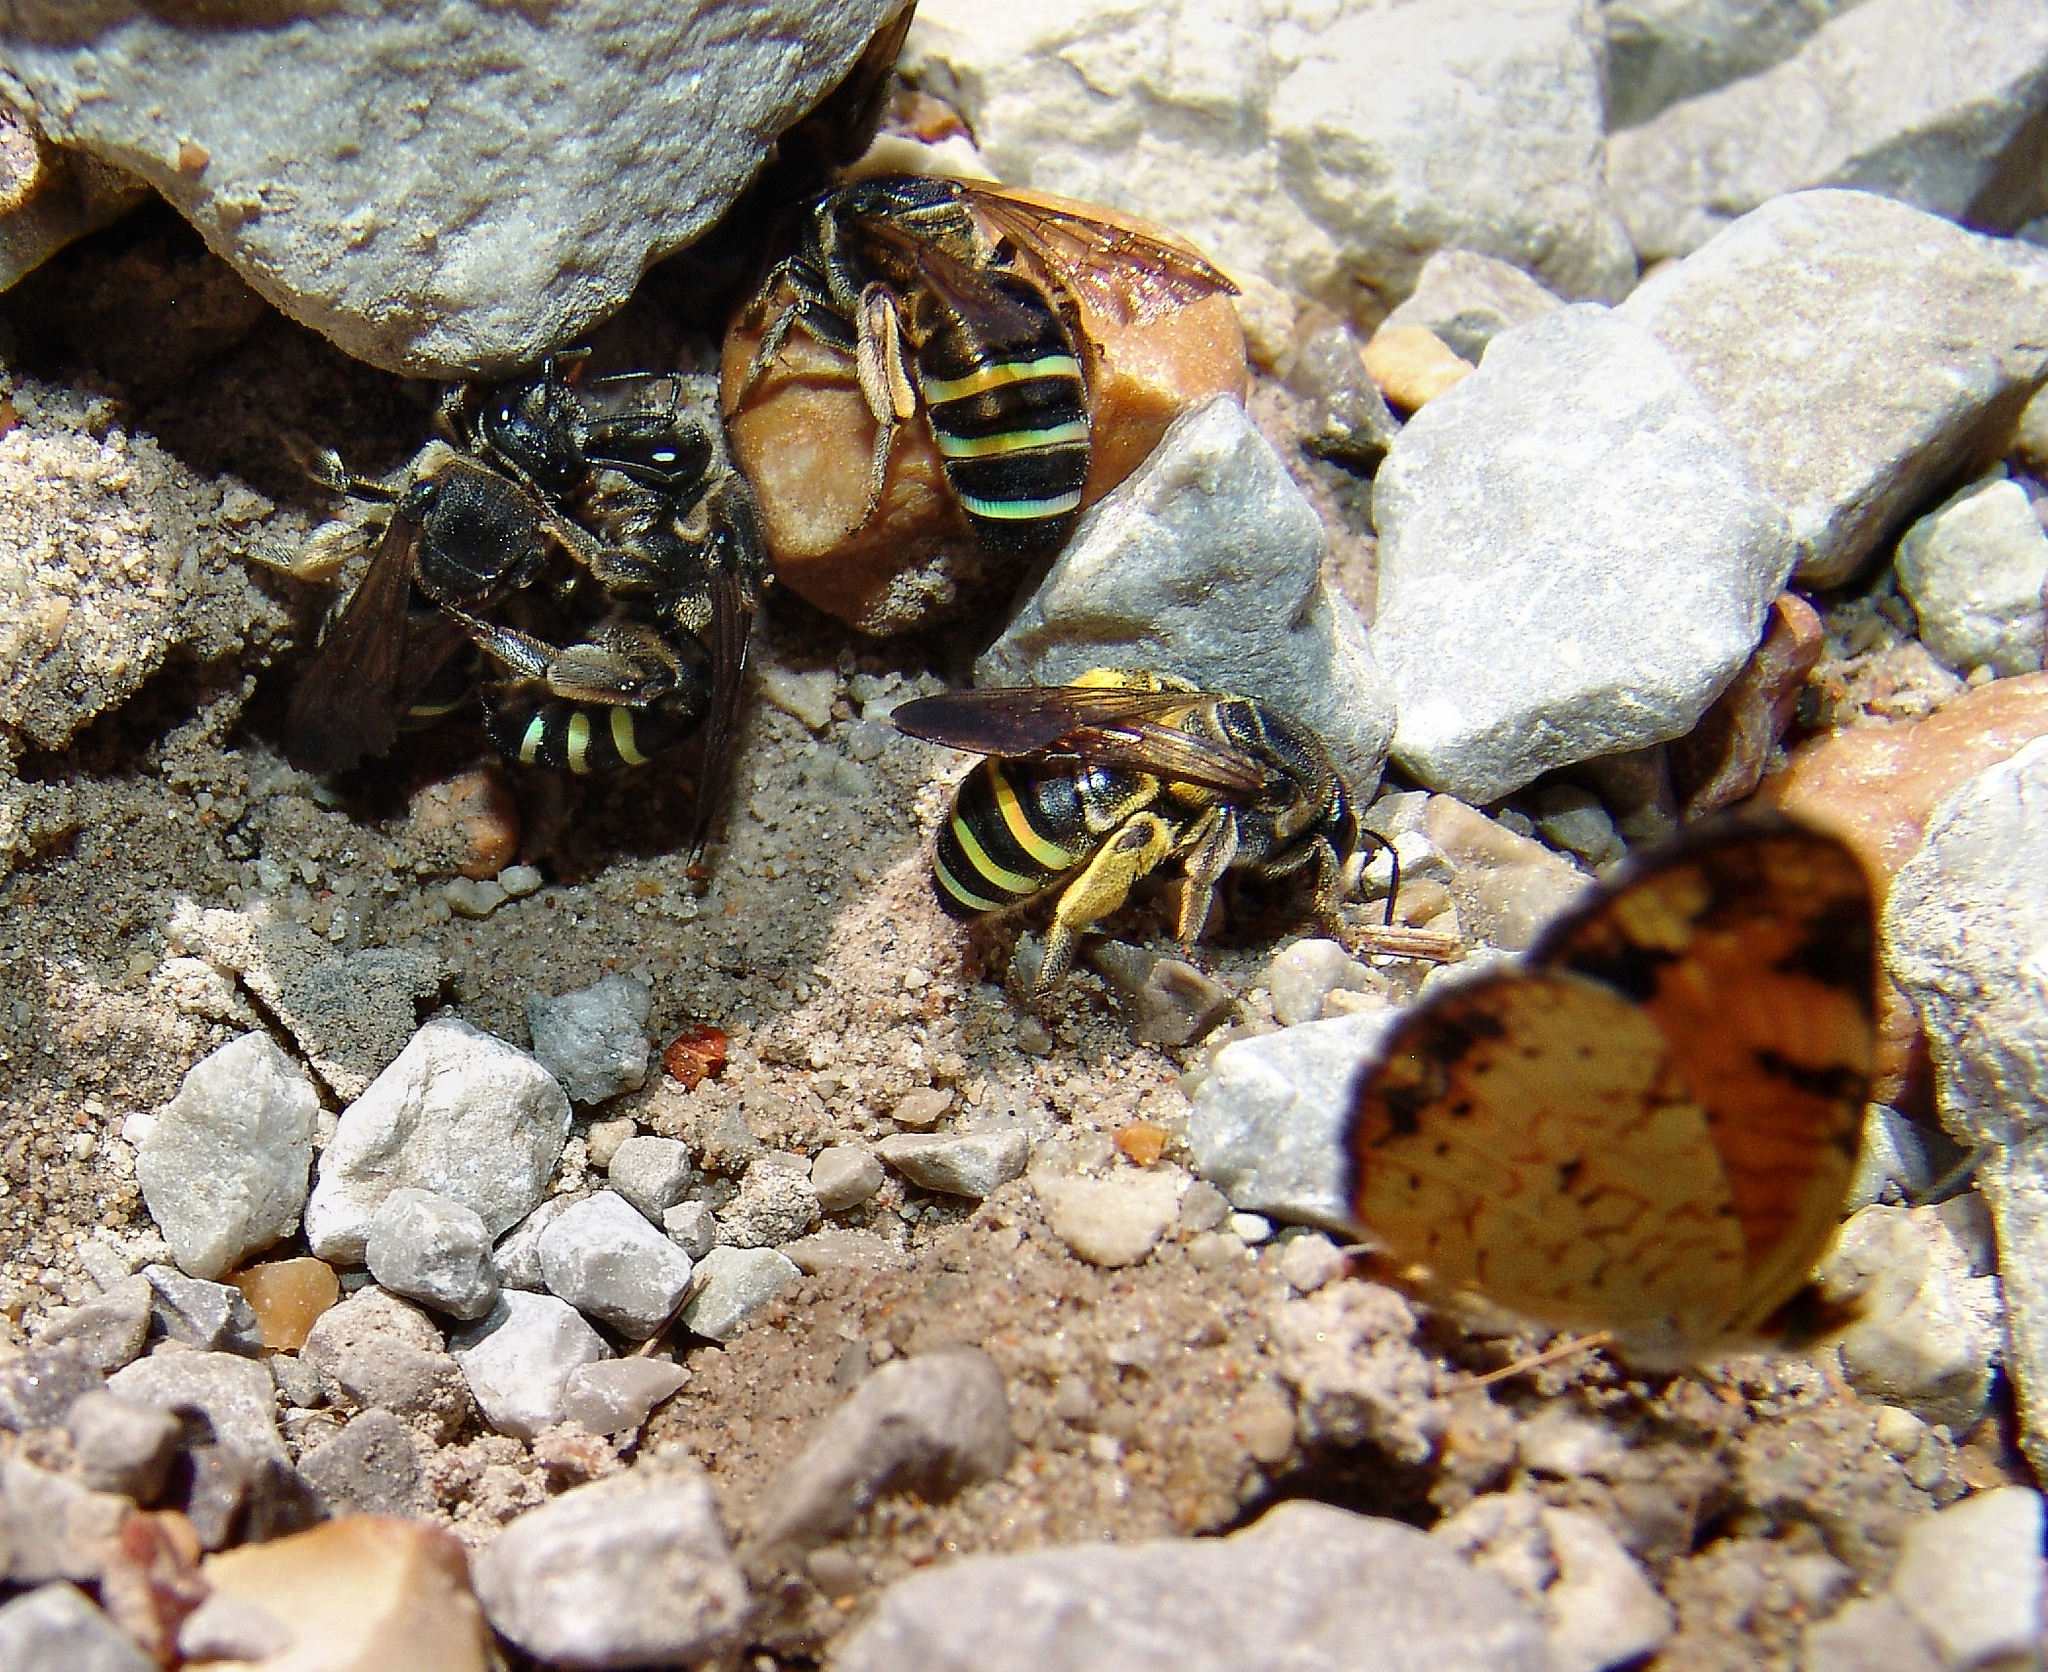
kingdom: Animalia
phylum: Arthropoda
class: Insecta
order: Hymenoptera
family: Halictidae
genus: Nomia
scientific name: Nomia nortoni
